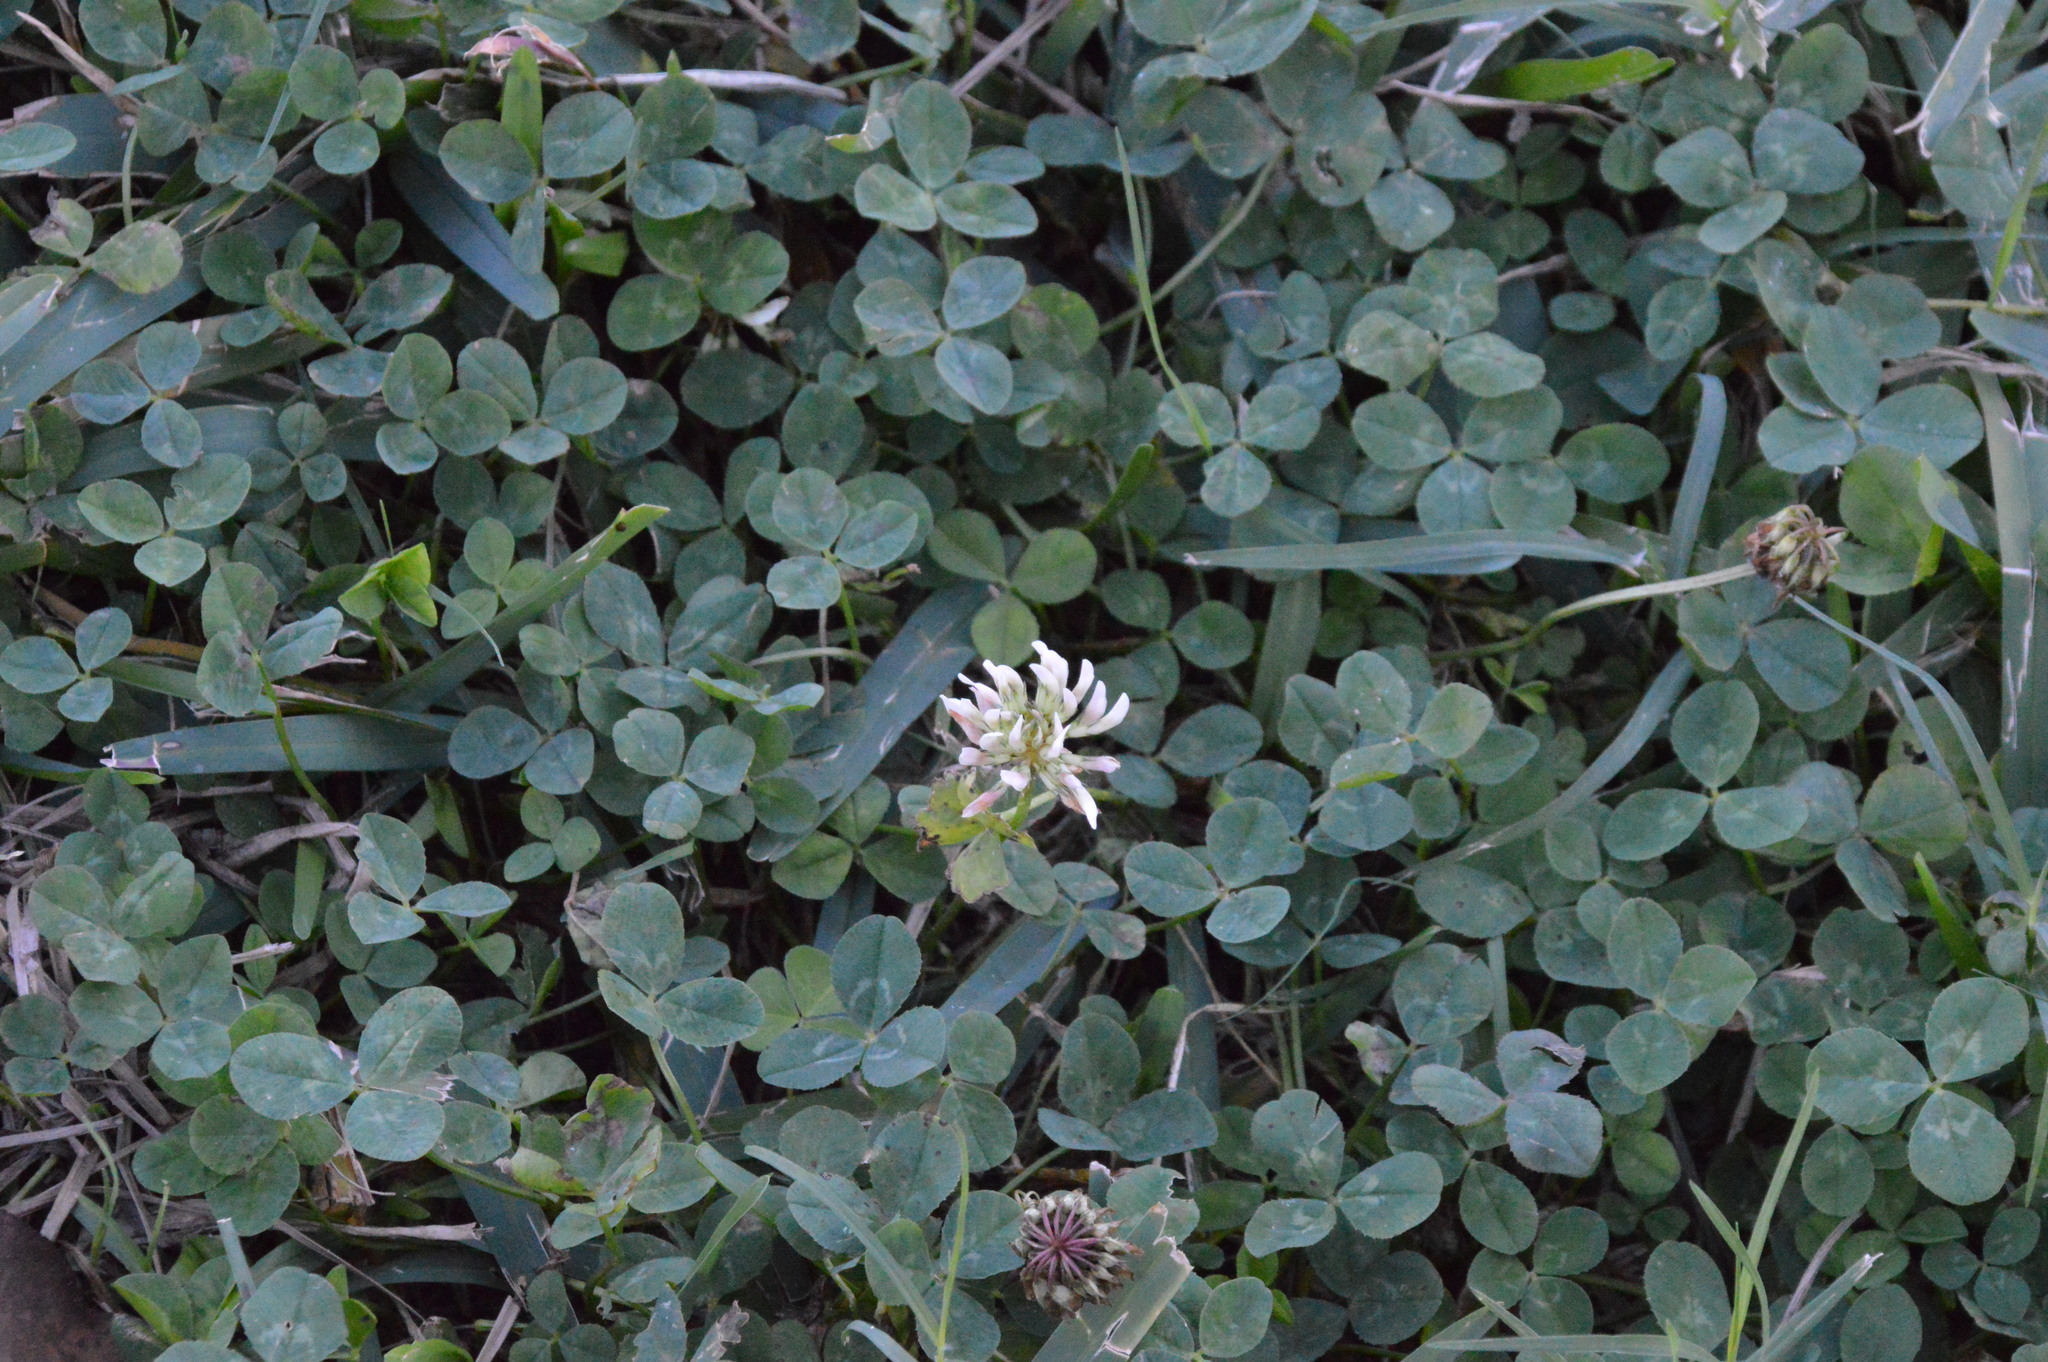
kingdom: Plantae
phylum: Tracheophyta
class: Magnoliopsida
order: Fabales
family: Fabaceae
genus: Trifolium
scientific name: Trifolium repens
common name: White clover
